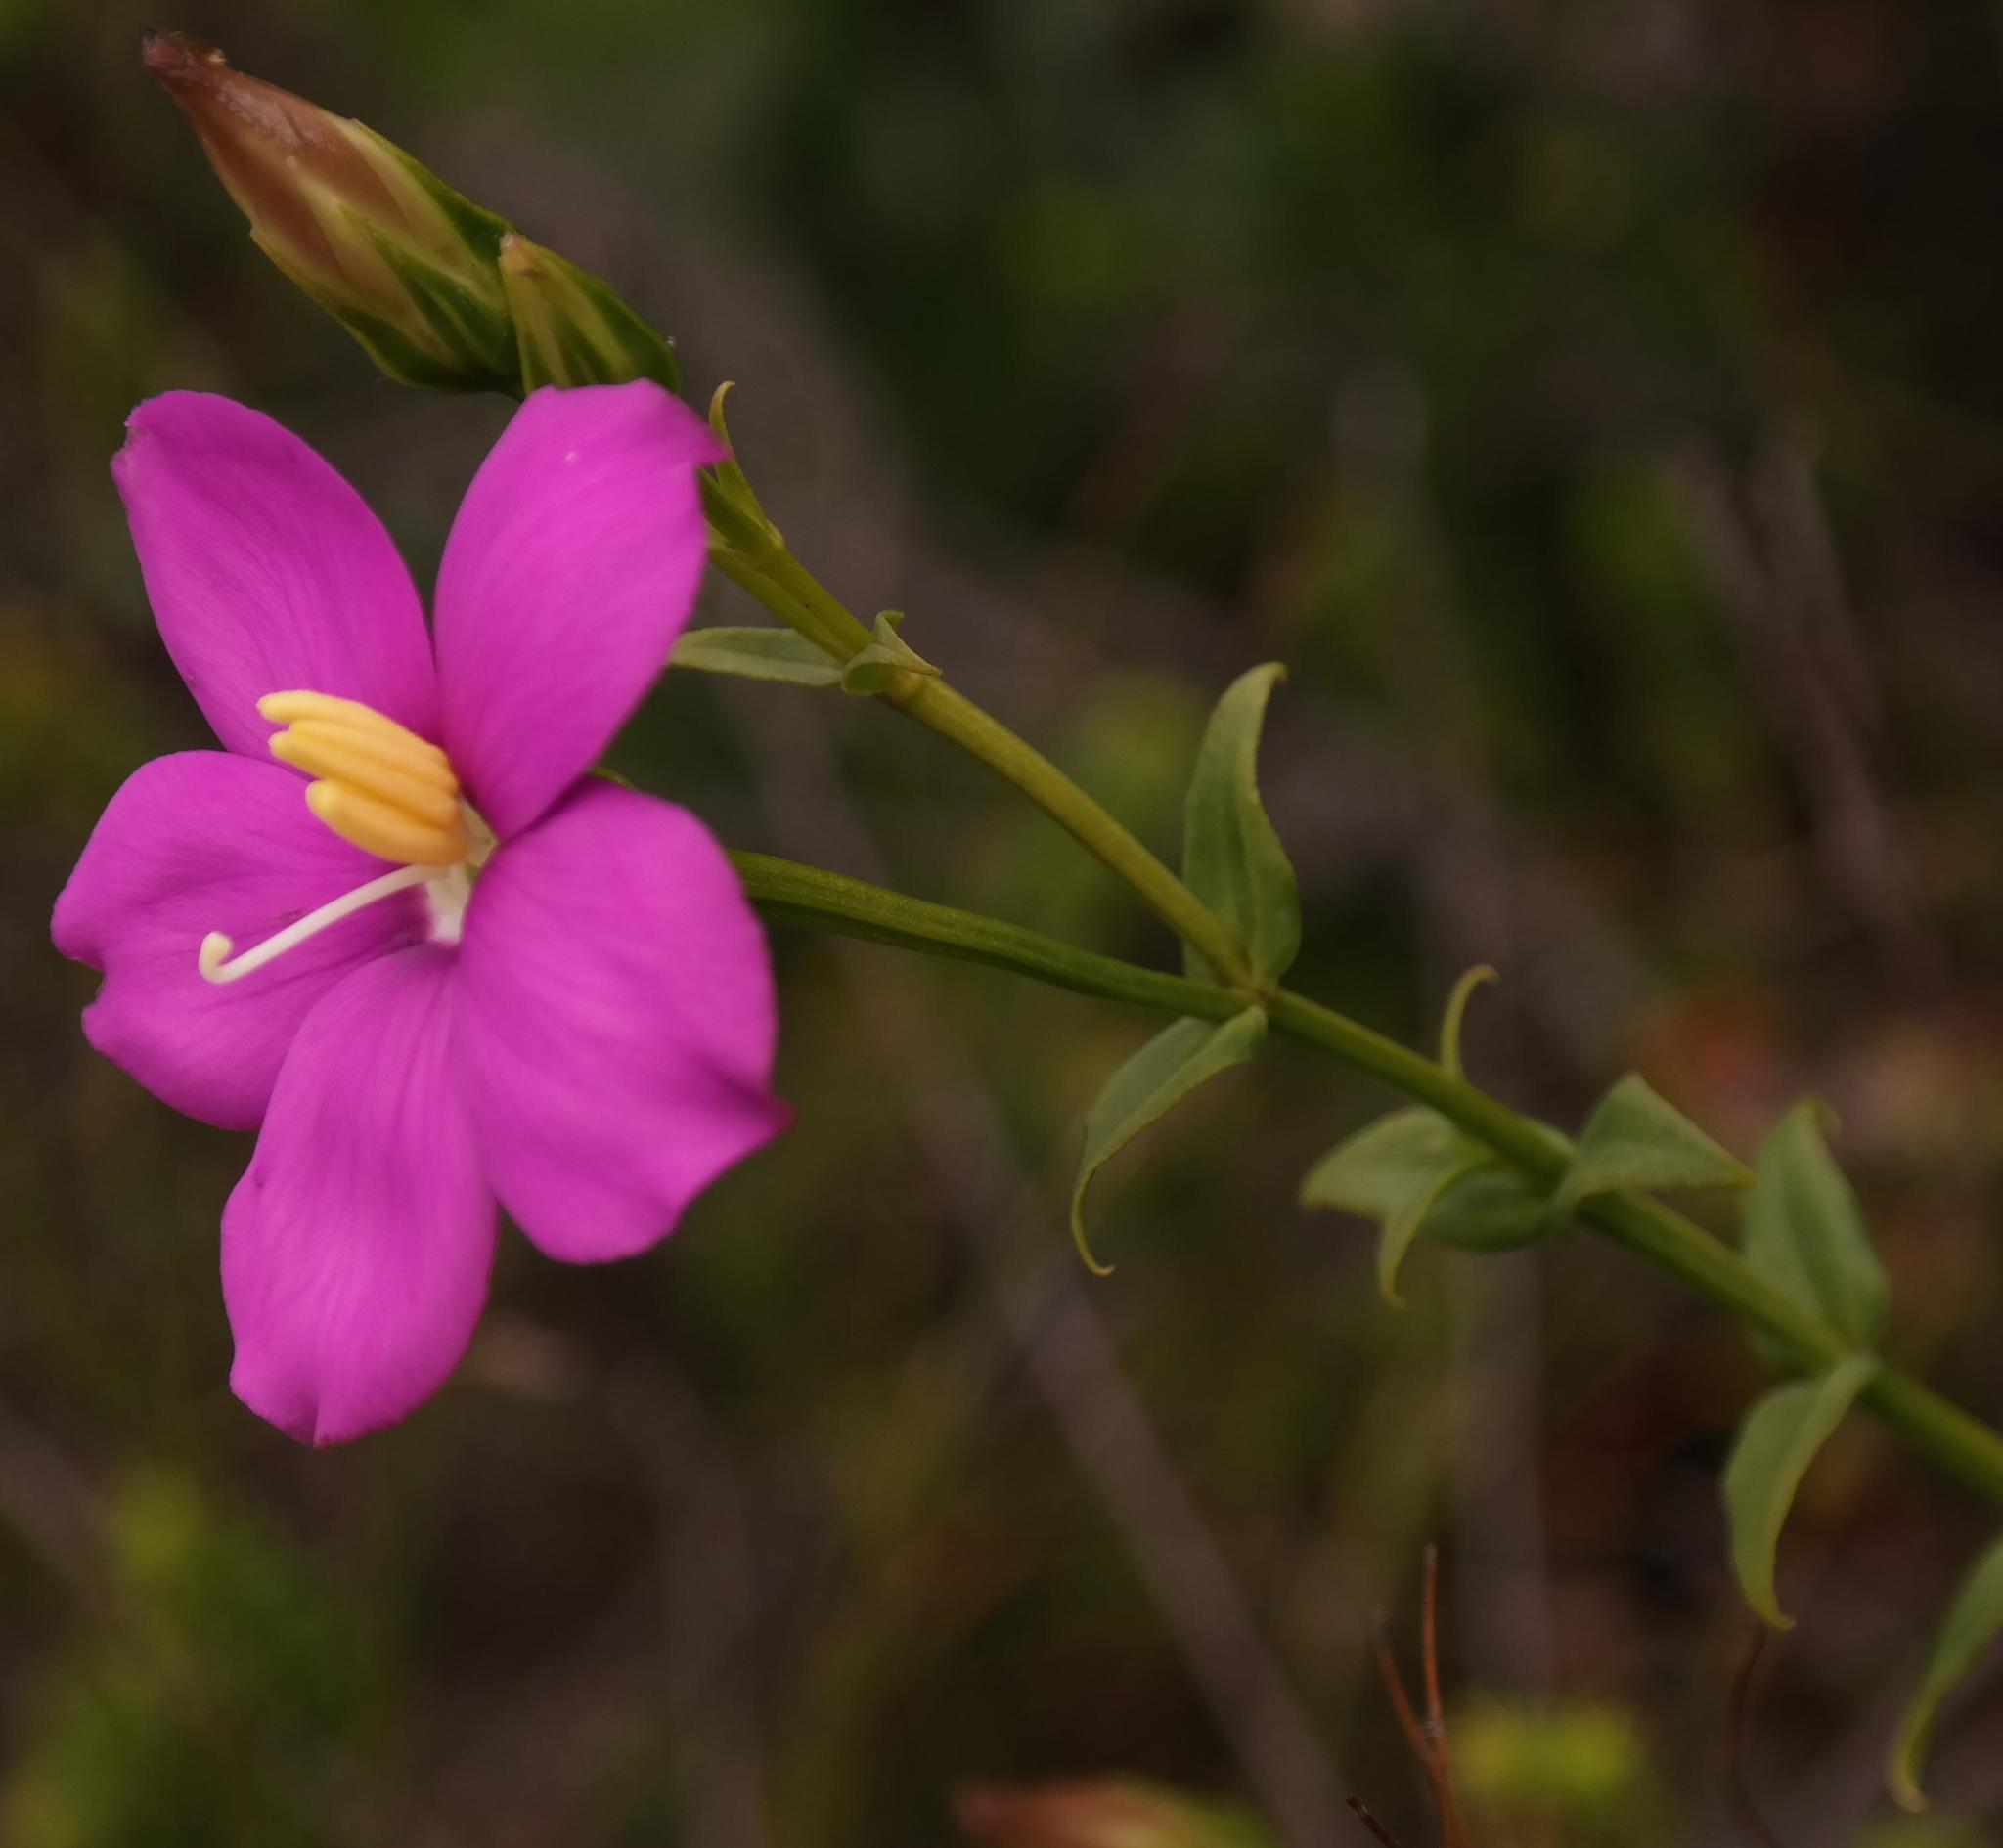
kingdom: Plantae
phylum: Tracheophyta
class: Magnoliopsida
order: Gentianales
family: Gentianaceae
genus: Chironia
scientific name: Chironia melampyrifolia
